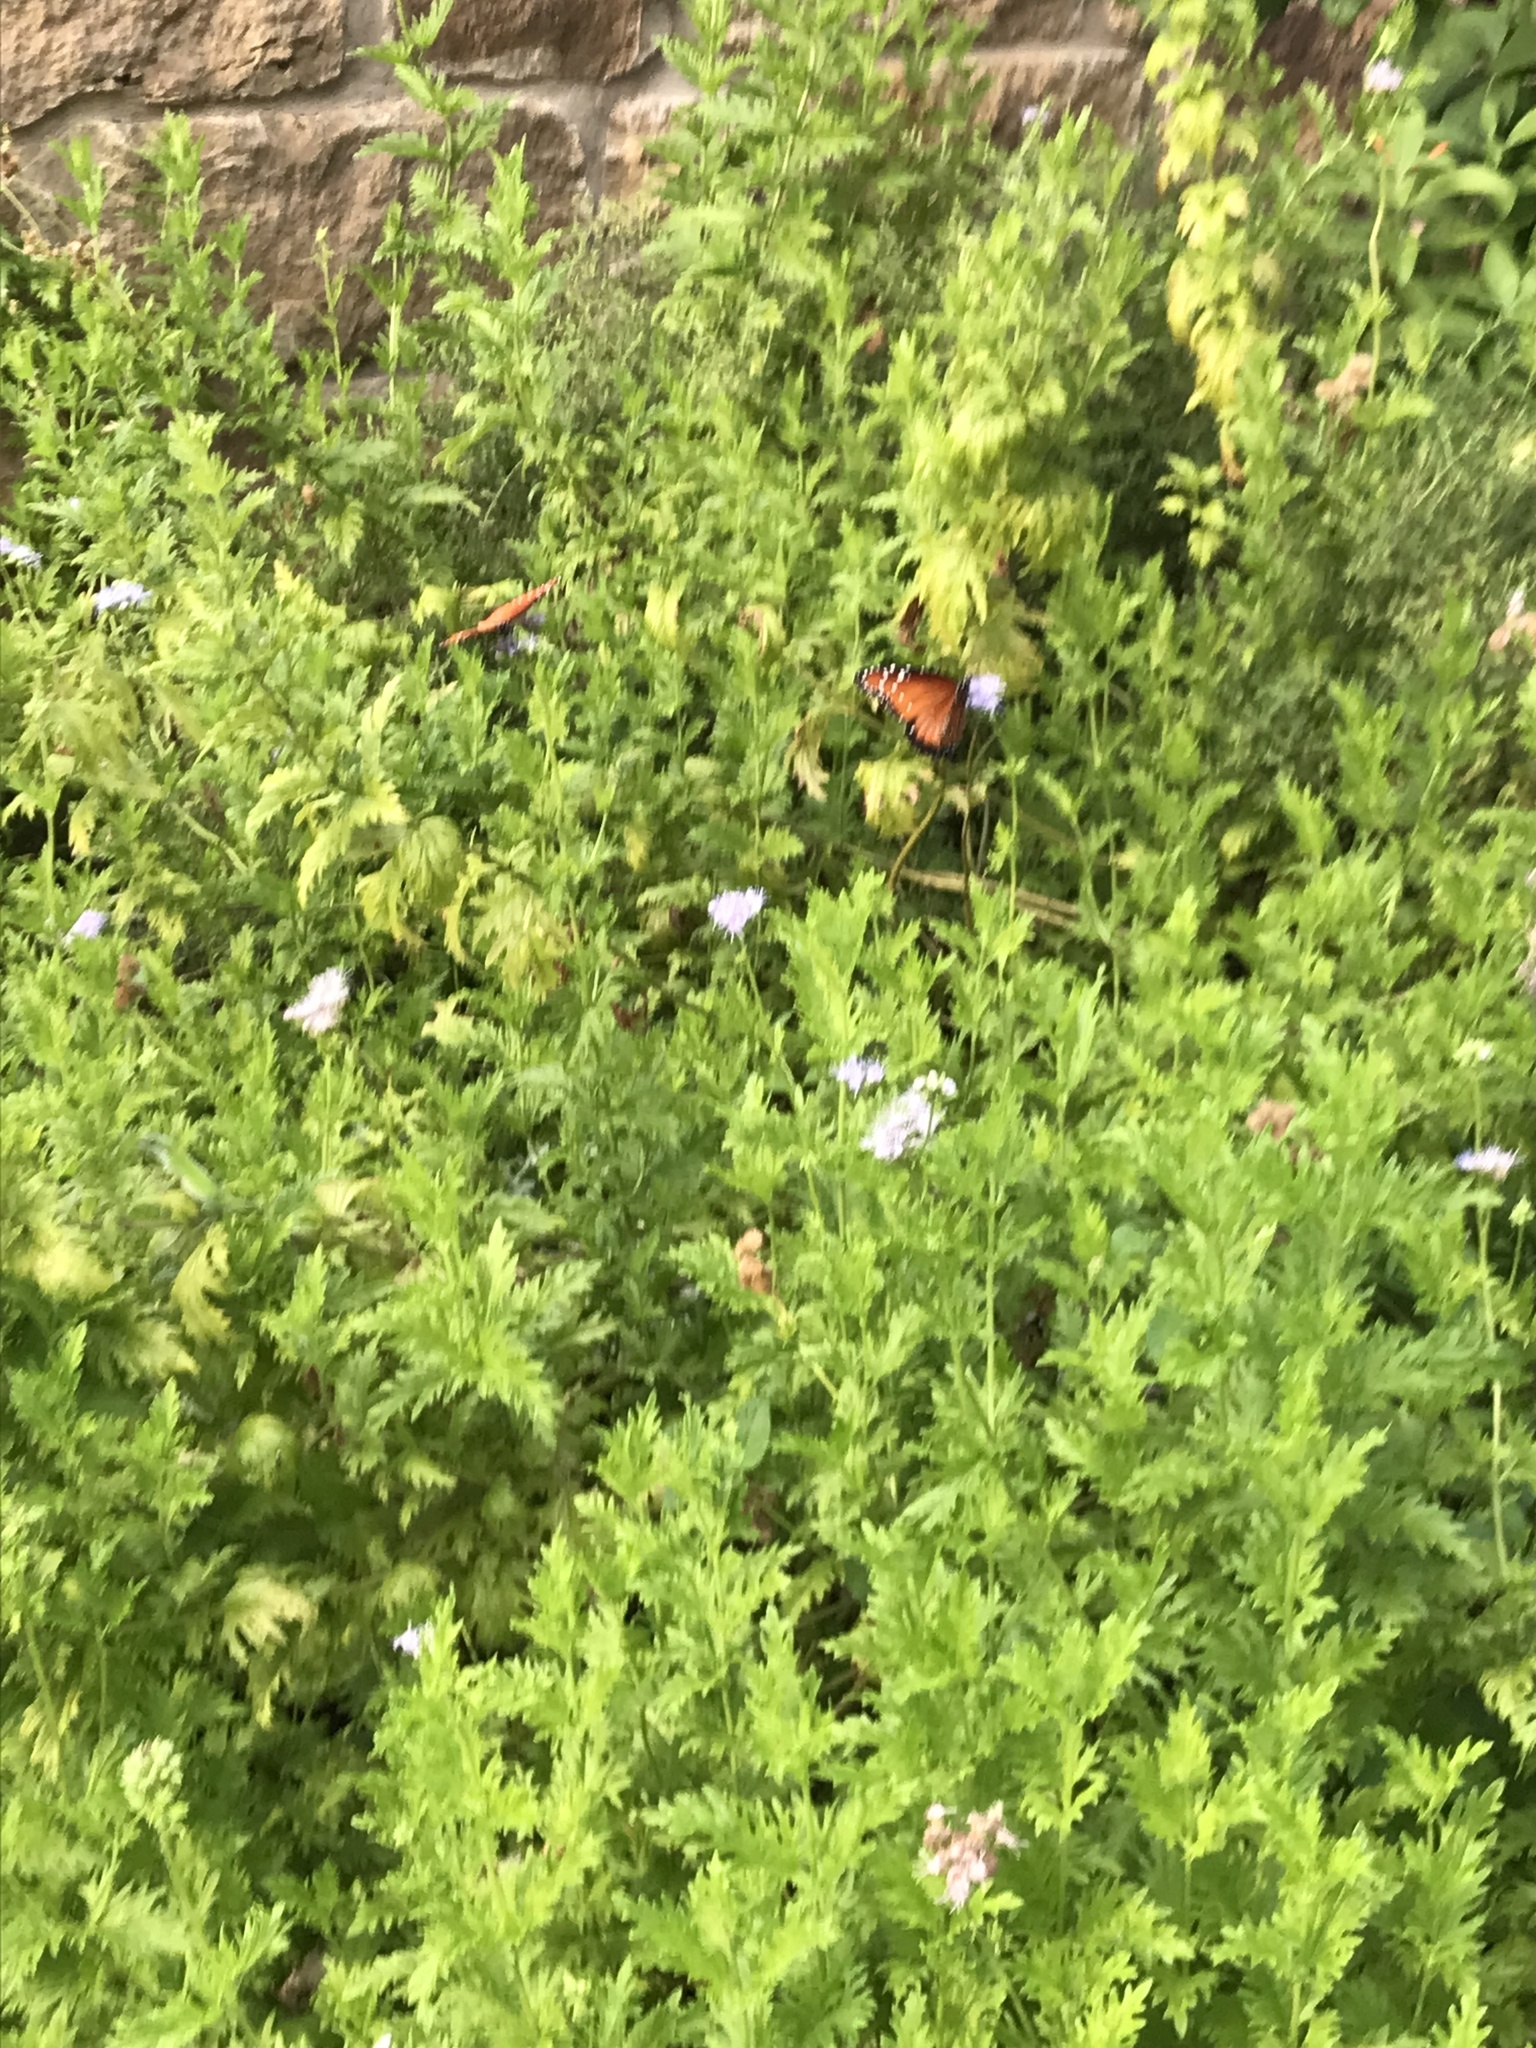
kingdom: Animalia
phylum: Arthropoda
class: Insecta
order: Lepidoptera
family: Nymphalidae
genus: Danaus
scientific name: Danaus gilippus
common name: Queen
